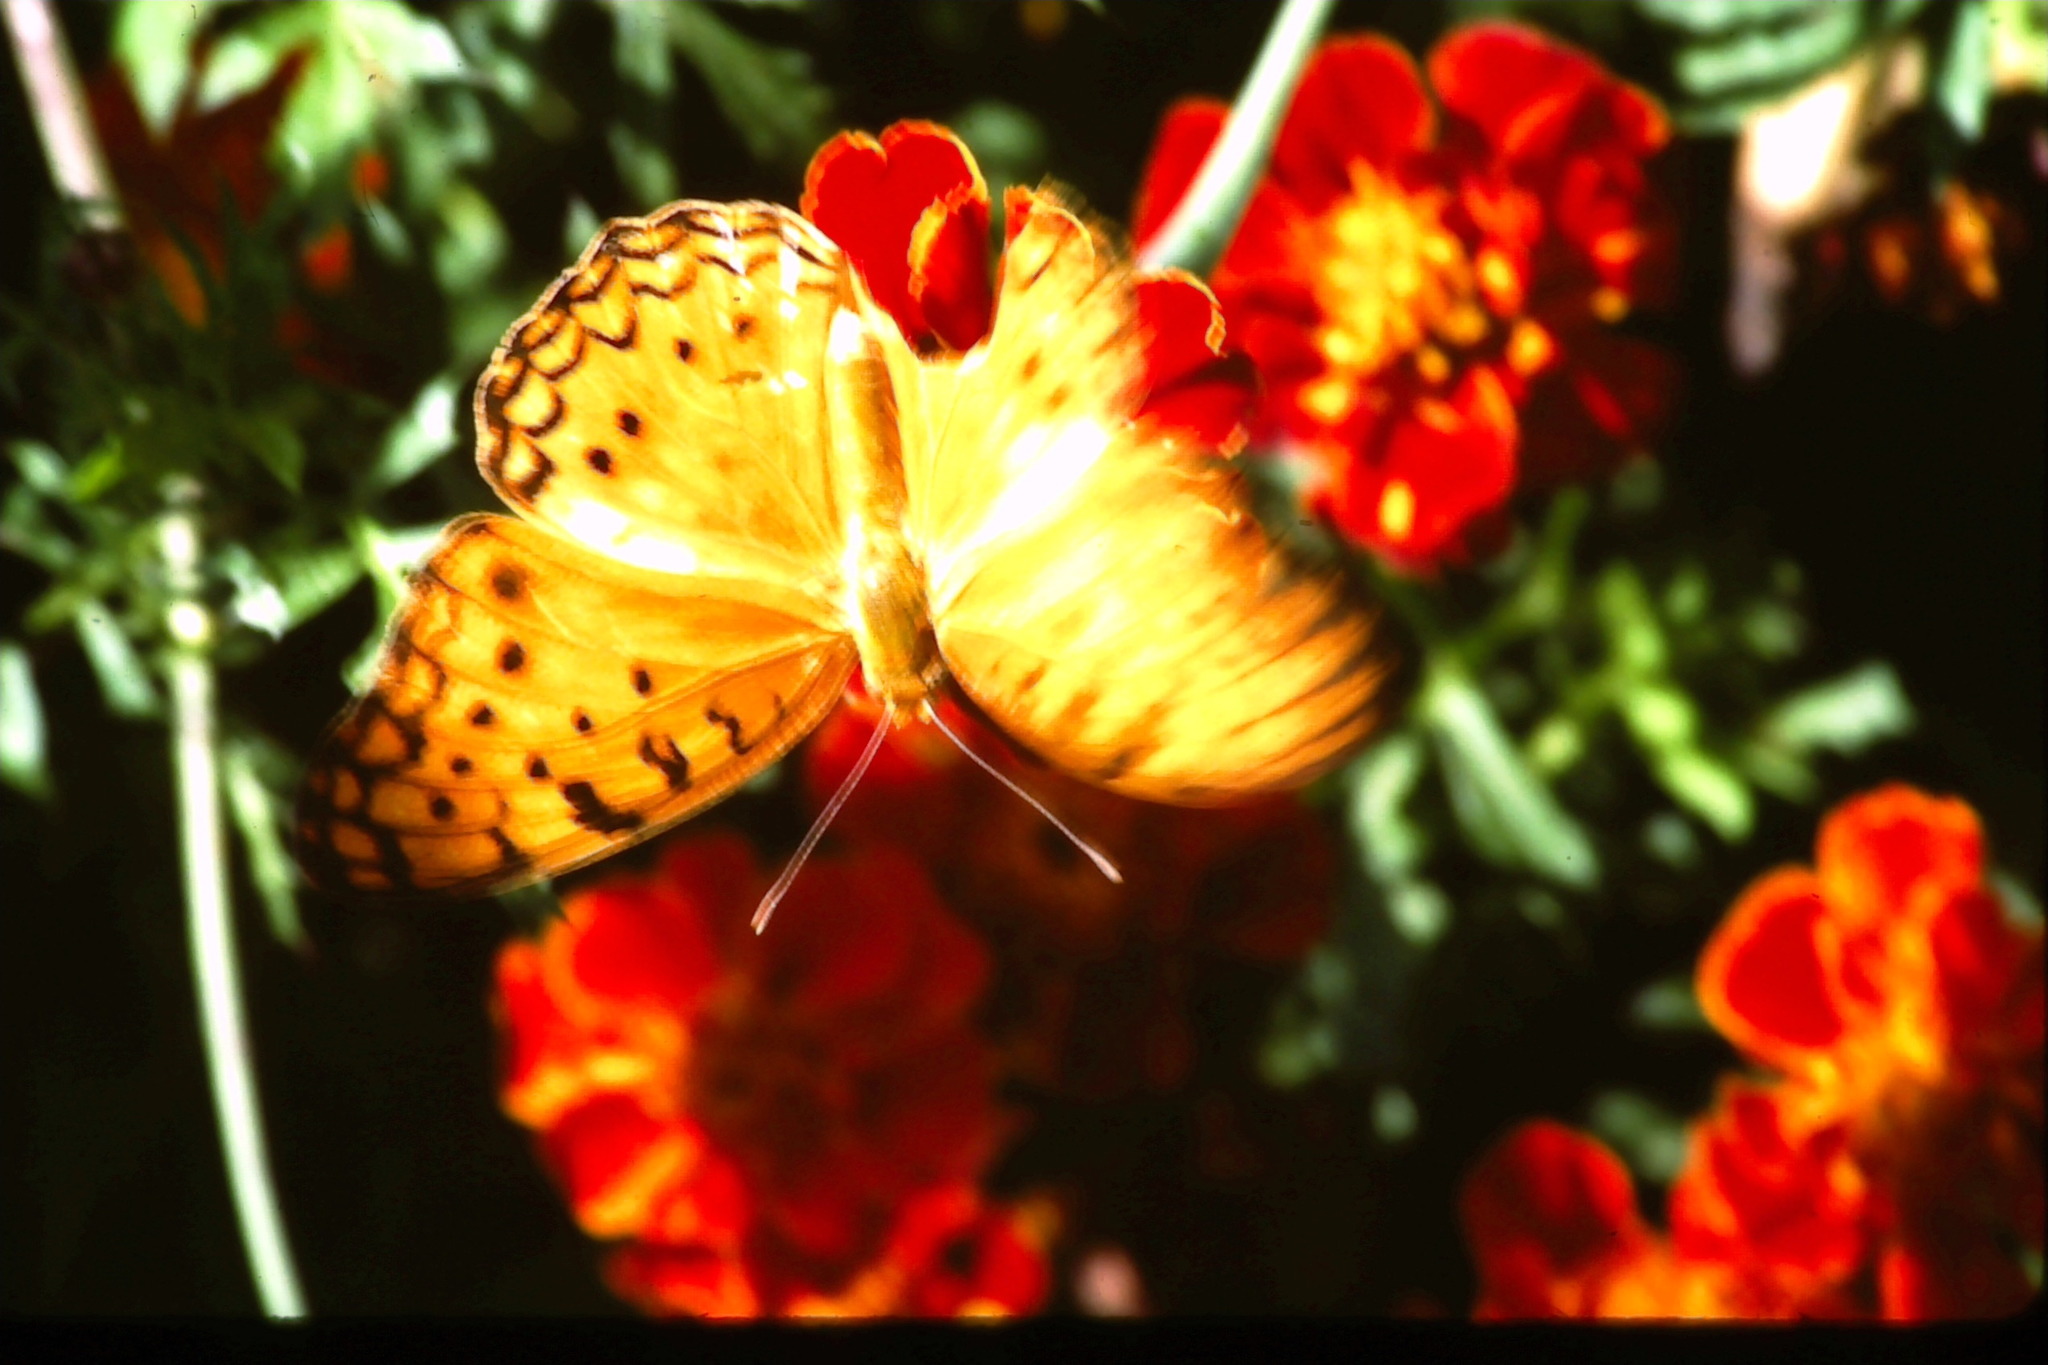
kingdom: Animalia
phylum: Arthropoda
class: Insecta
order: Lepidoptera
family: Nymphalidae
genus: Phalanta
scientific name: Phalanta phalantha
